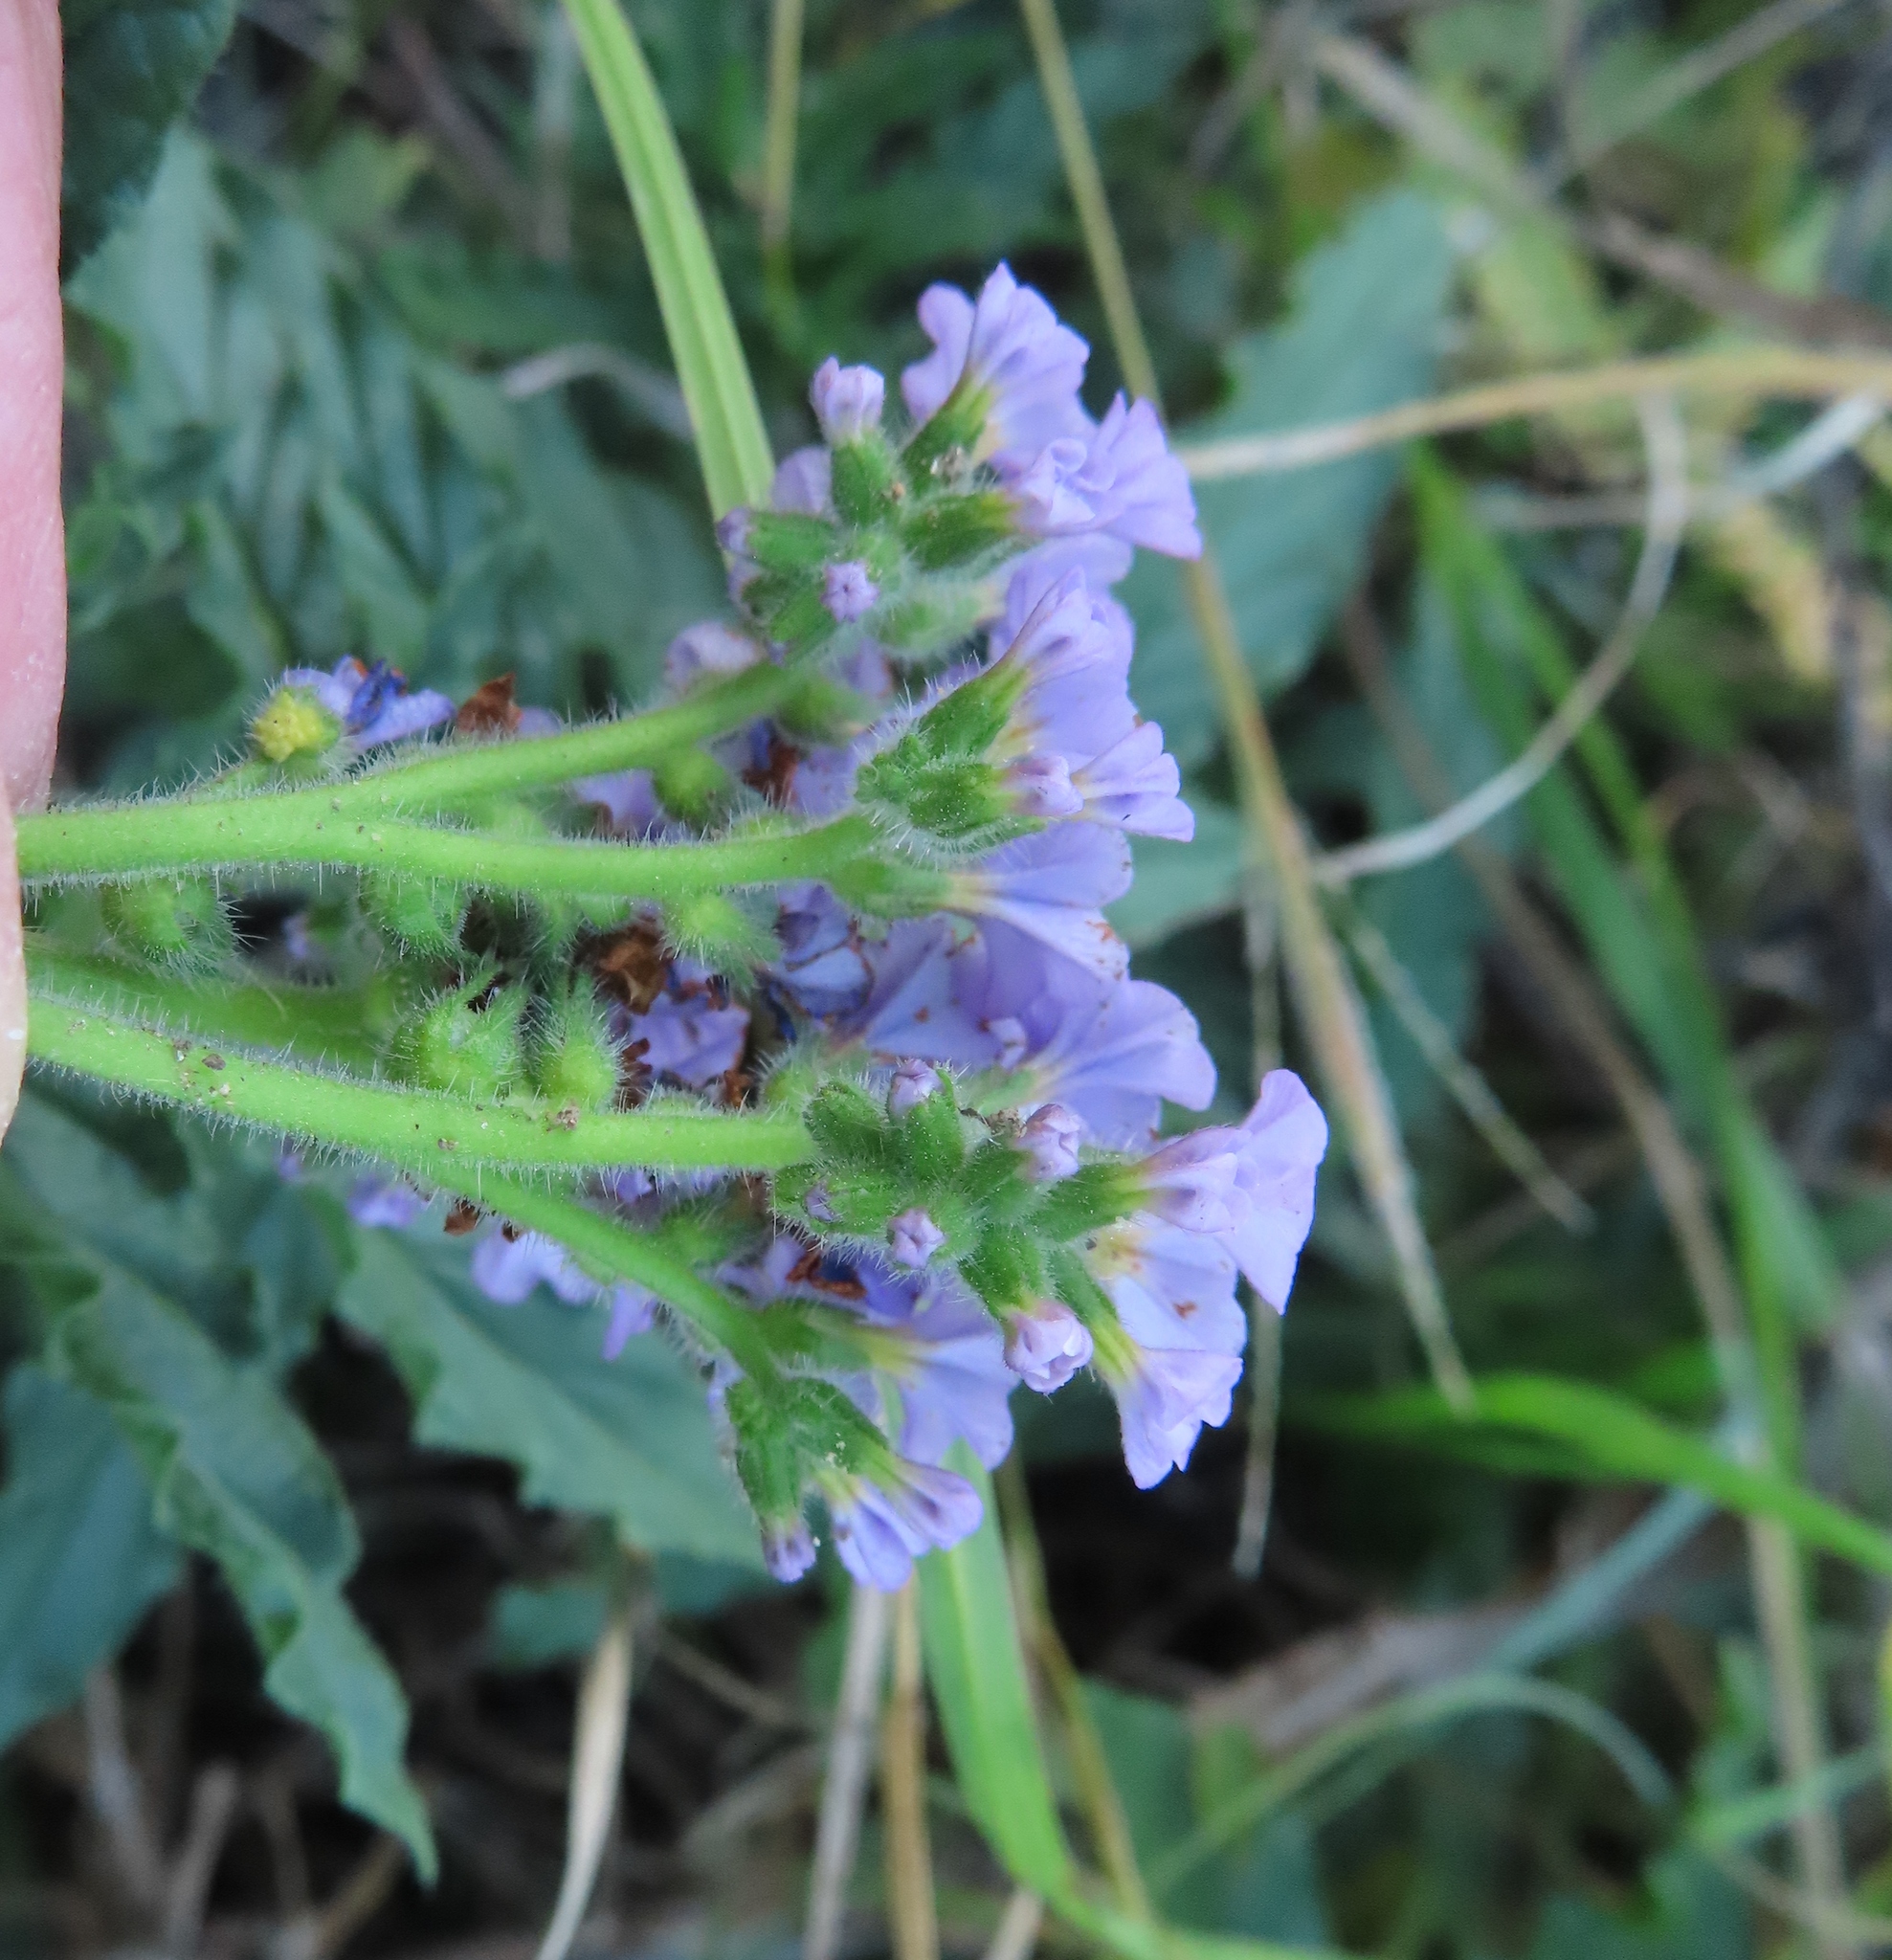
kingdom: Plantae
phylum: Tracheophyta
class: Magnoliopsida
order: Boraginales
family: Heliotropiaceae
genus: Heliotropium
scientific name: Heliotropium amplexicaule
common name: Clasping heliotrope
